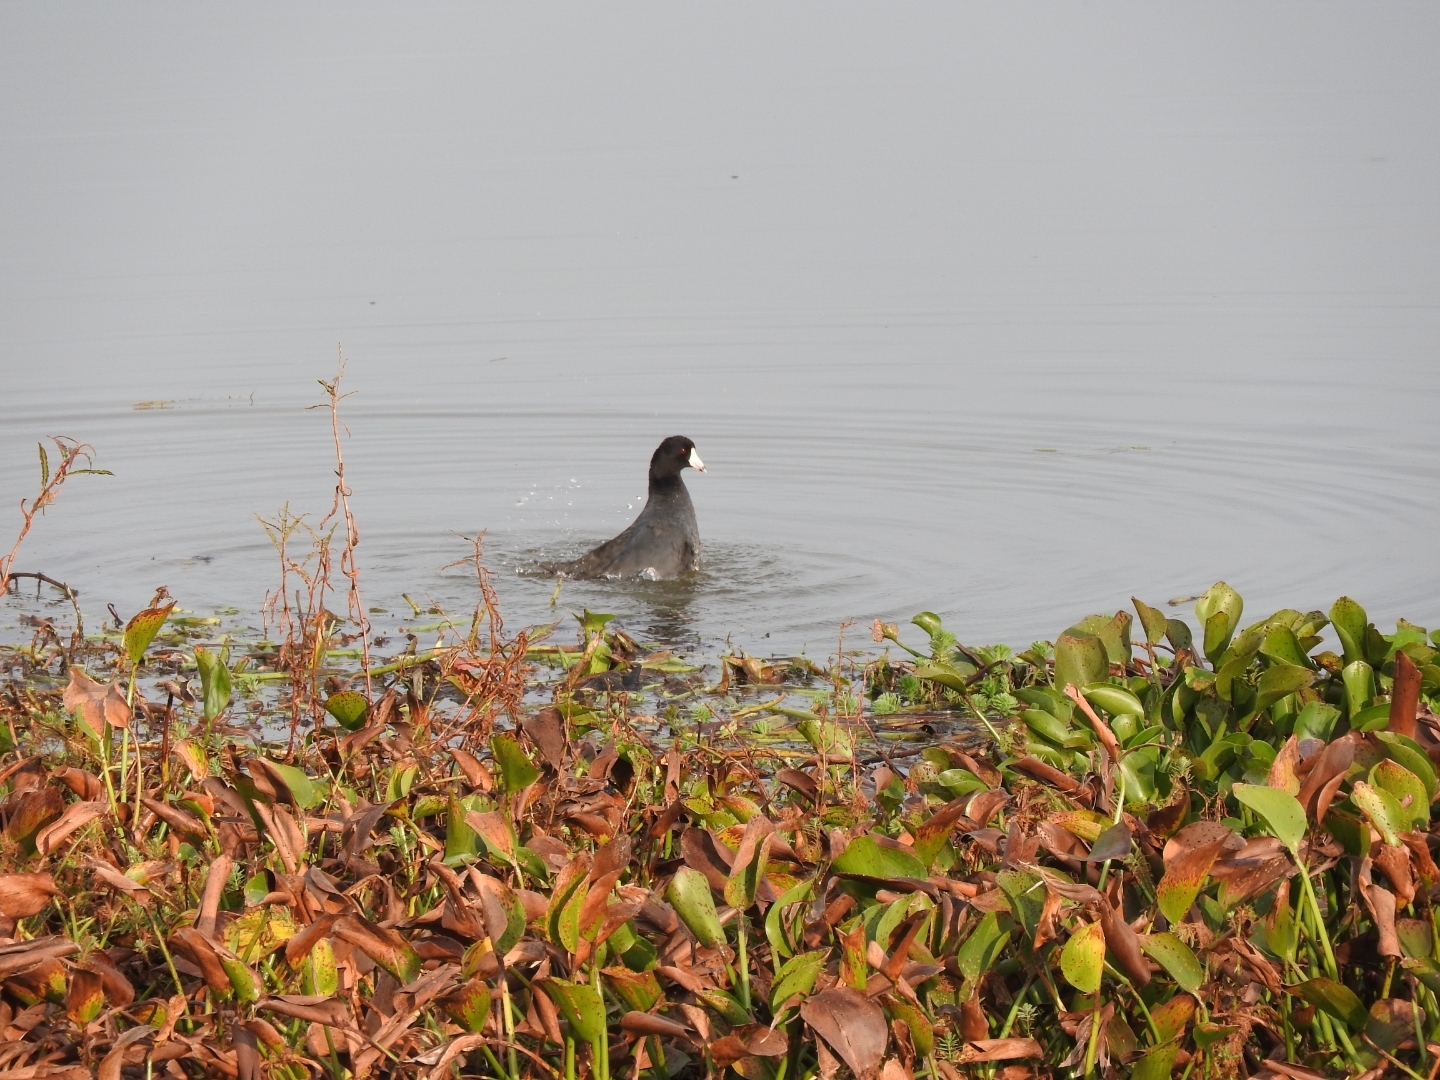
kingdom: Animalia
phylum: Chordata
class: Aves
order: Gruiformes
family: Rallidae
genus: Fulica
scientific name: Fulica americana
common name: American coot
